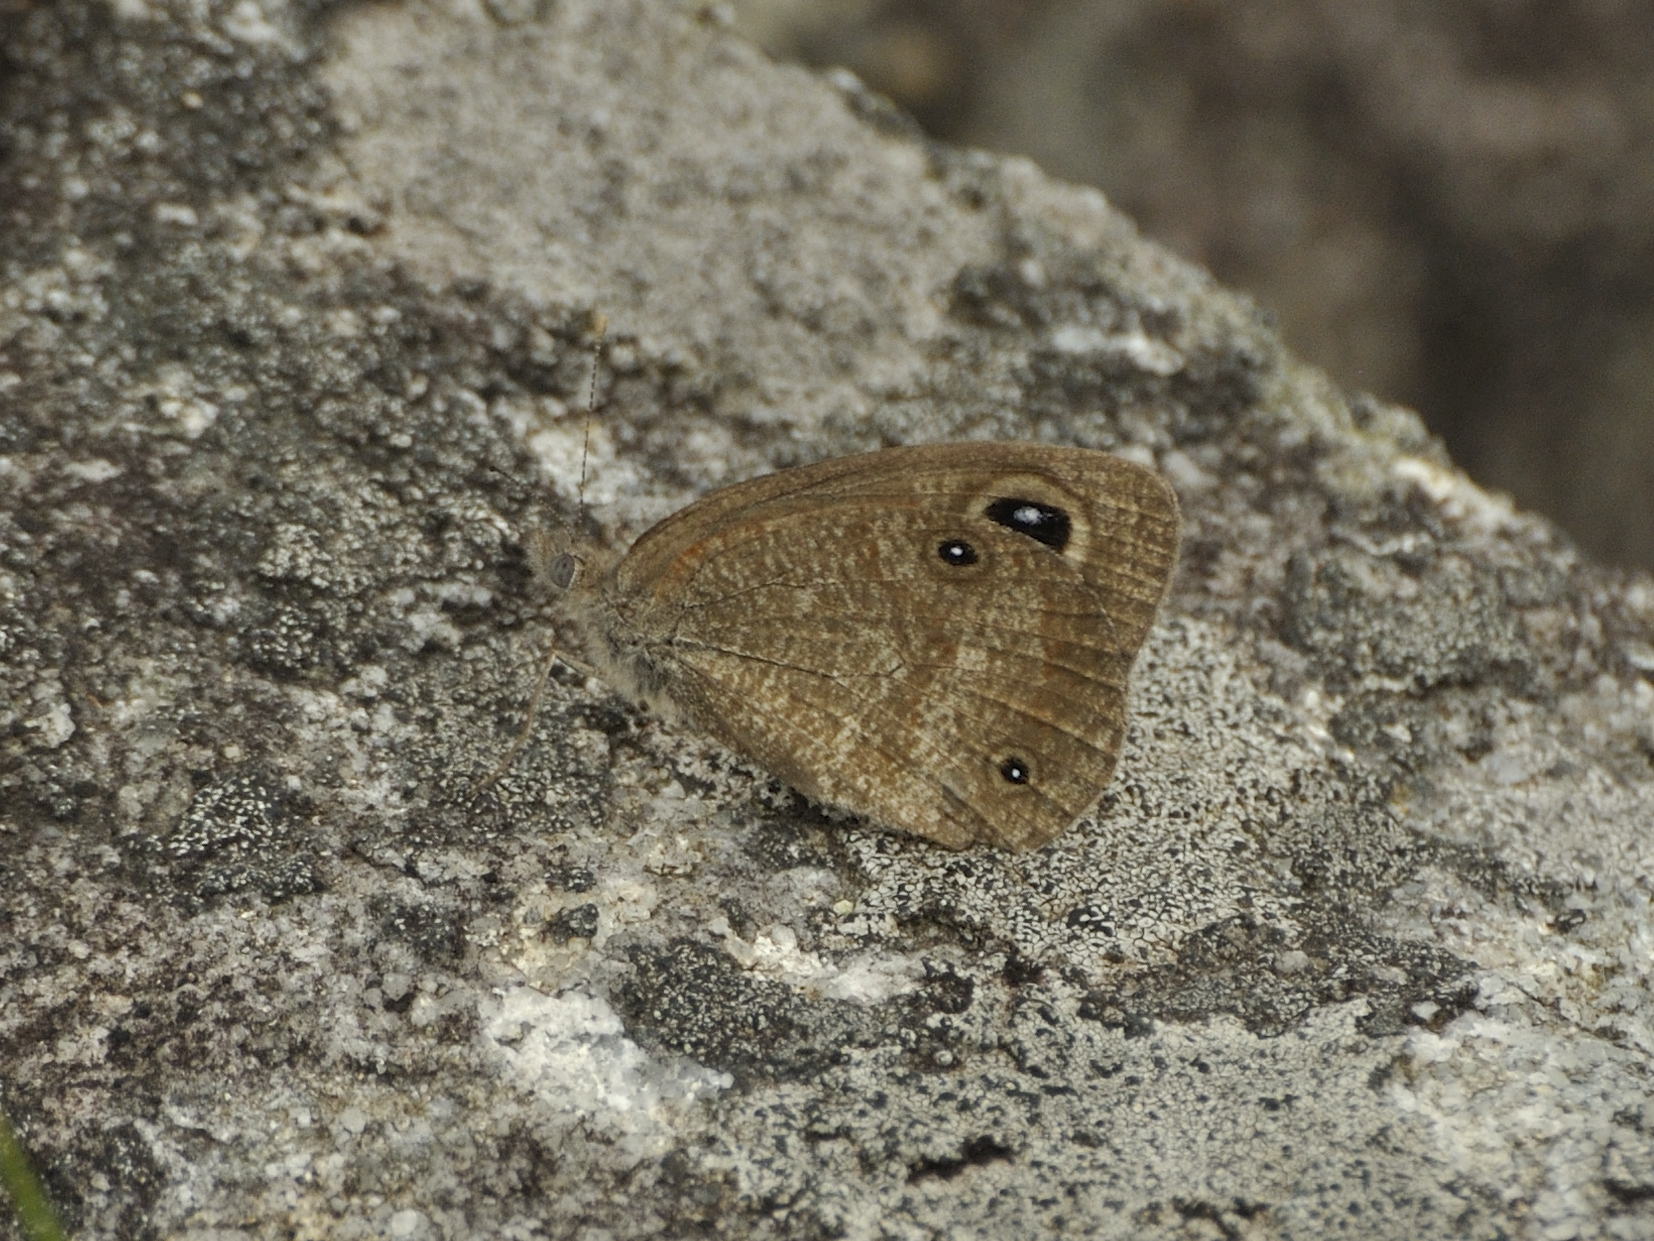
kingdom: Animalia
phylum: Arthropoda
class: Insecta
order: Lepidoptera
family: Nymphalidae
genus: Stygionympha
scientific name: Stygionympha wichgrafi
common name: Wichgraf’s hillside brown
